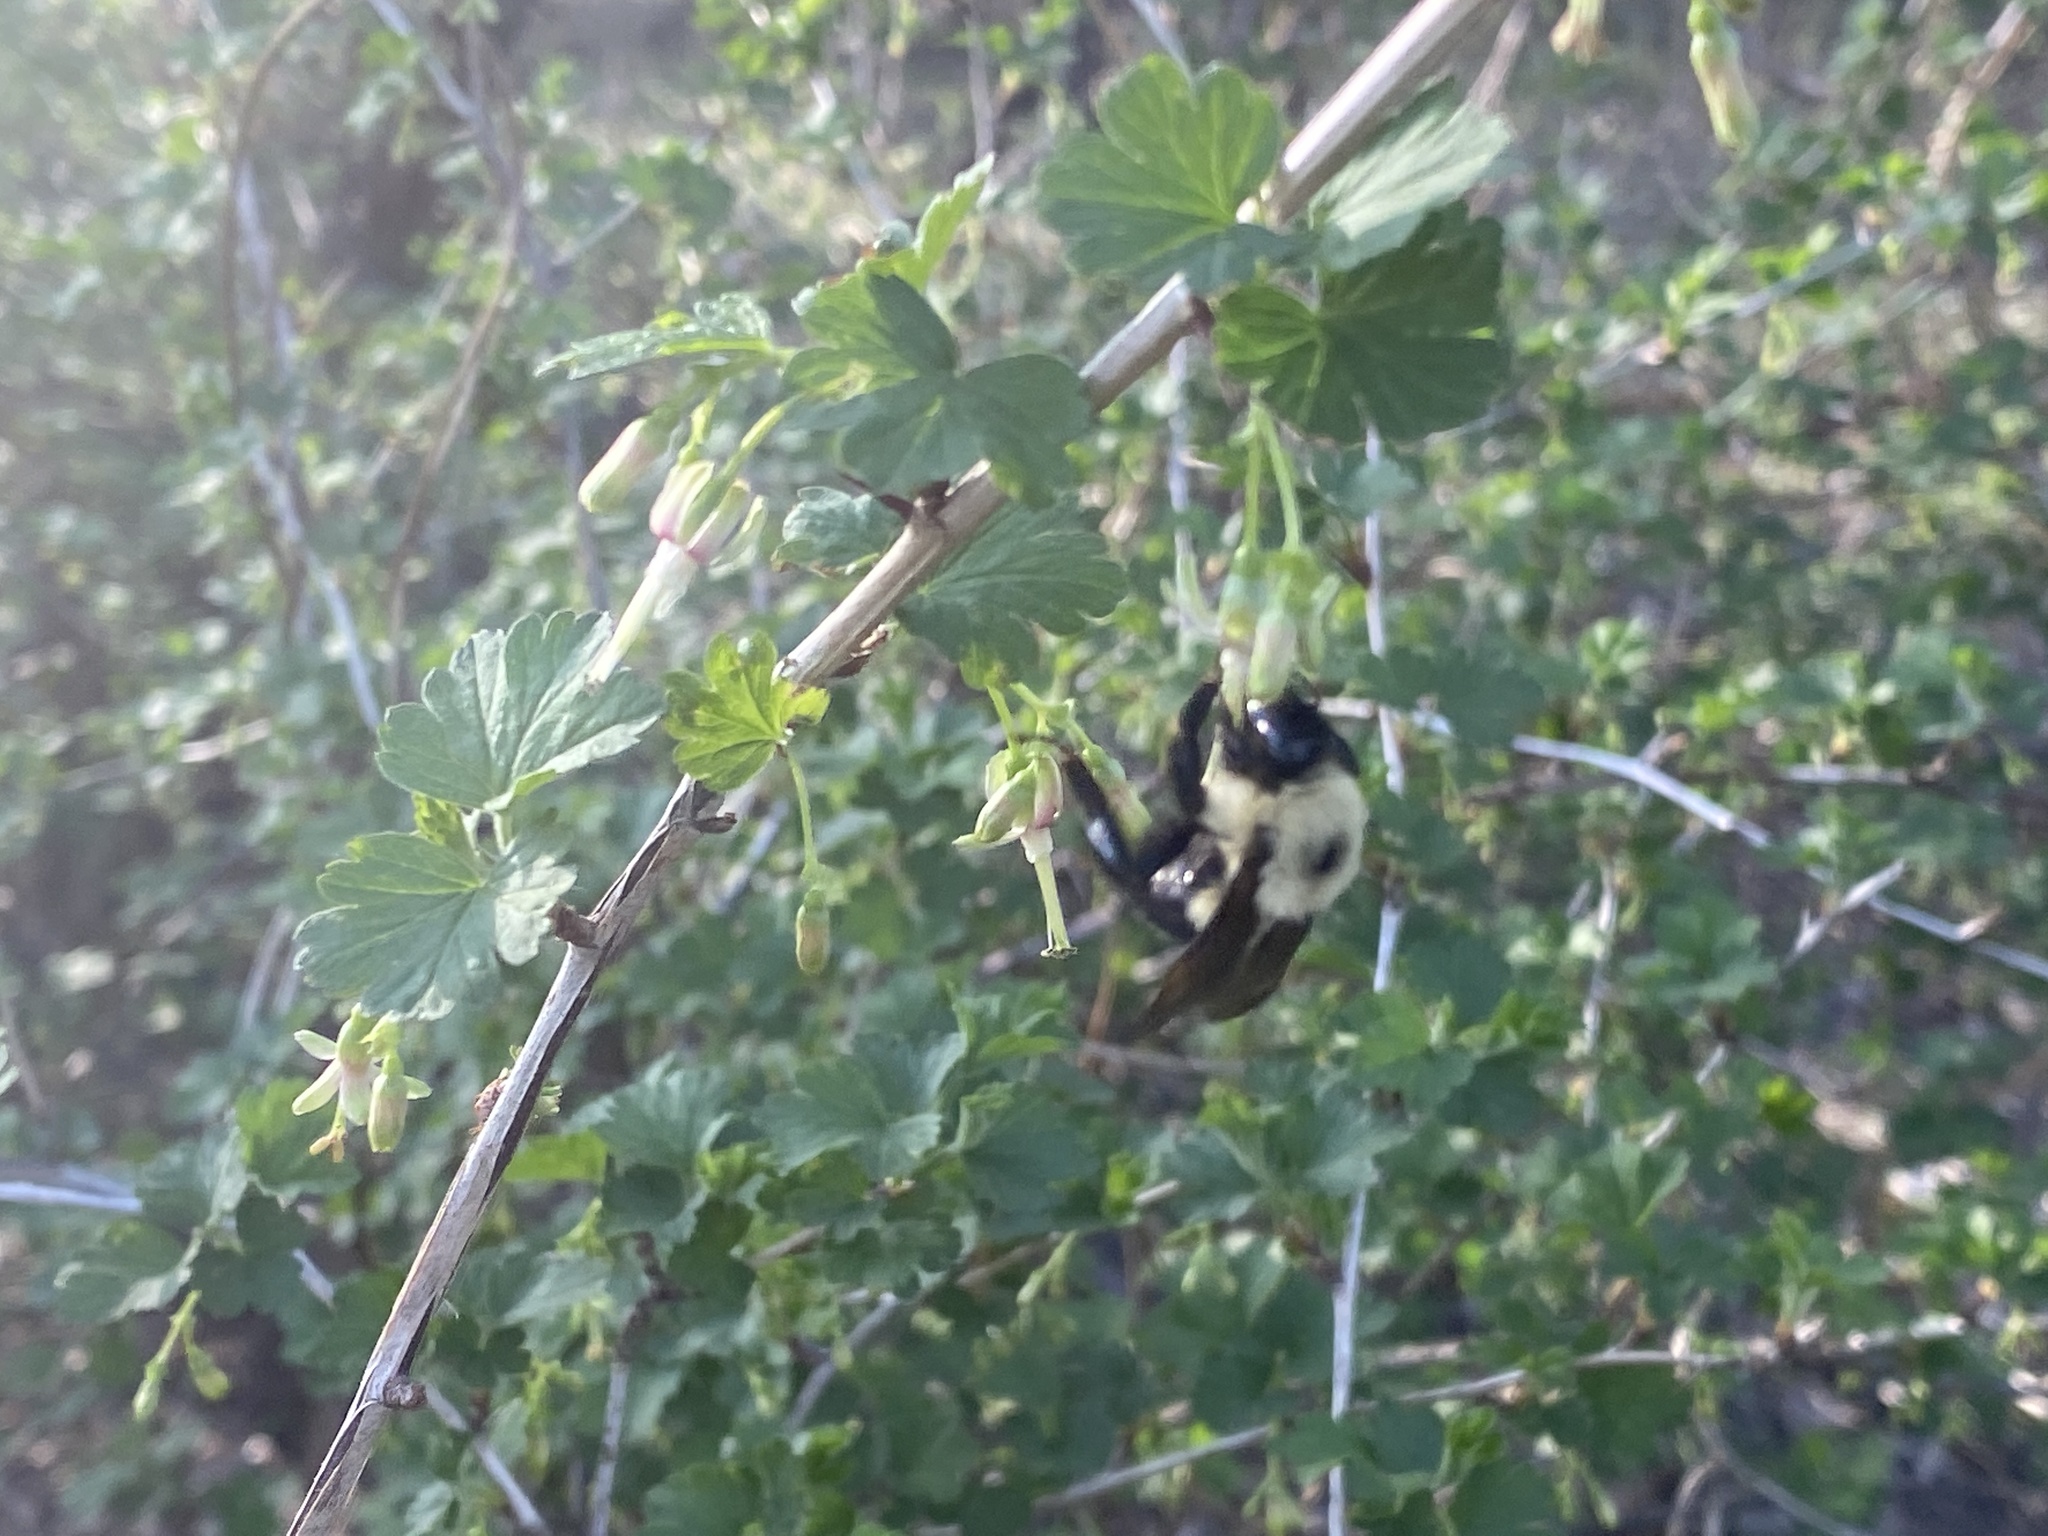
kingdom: Animalia
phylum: Arthropoda
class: Insecta
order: Hymenoptera
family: Apidae
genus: Bombus
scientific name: Bombus bimaculatus
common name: Two-spotted bumble bee
